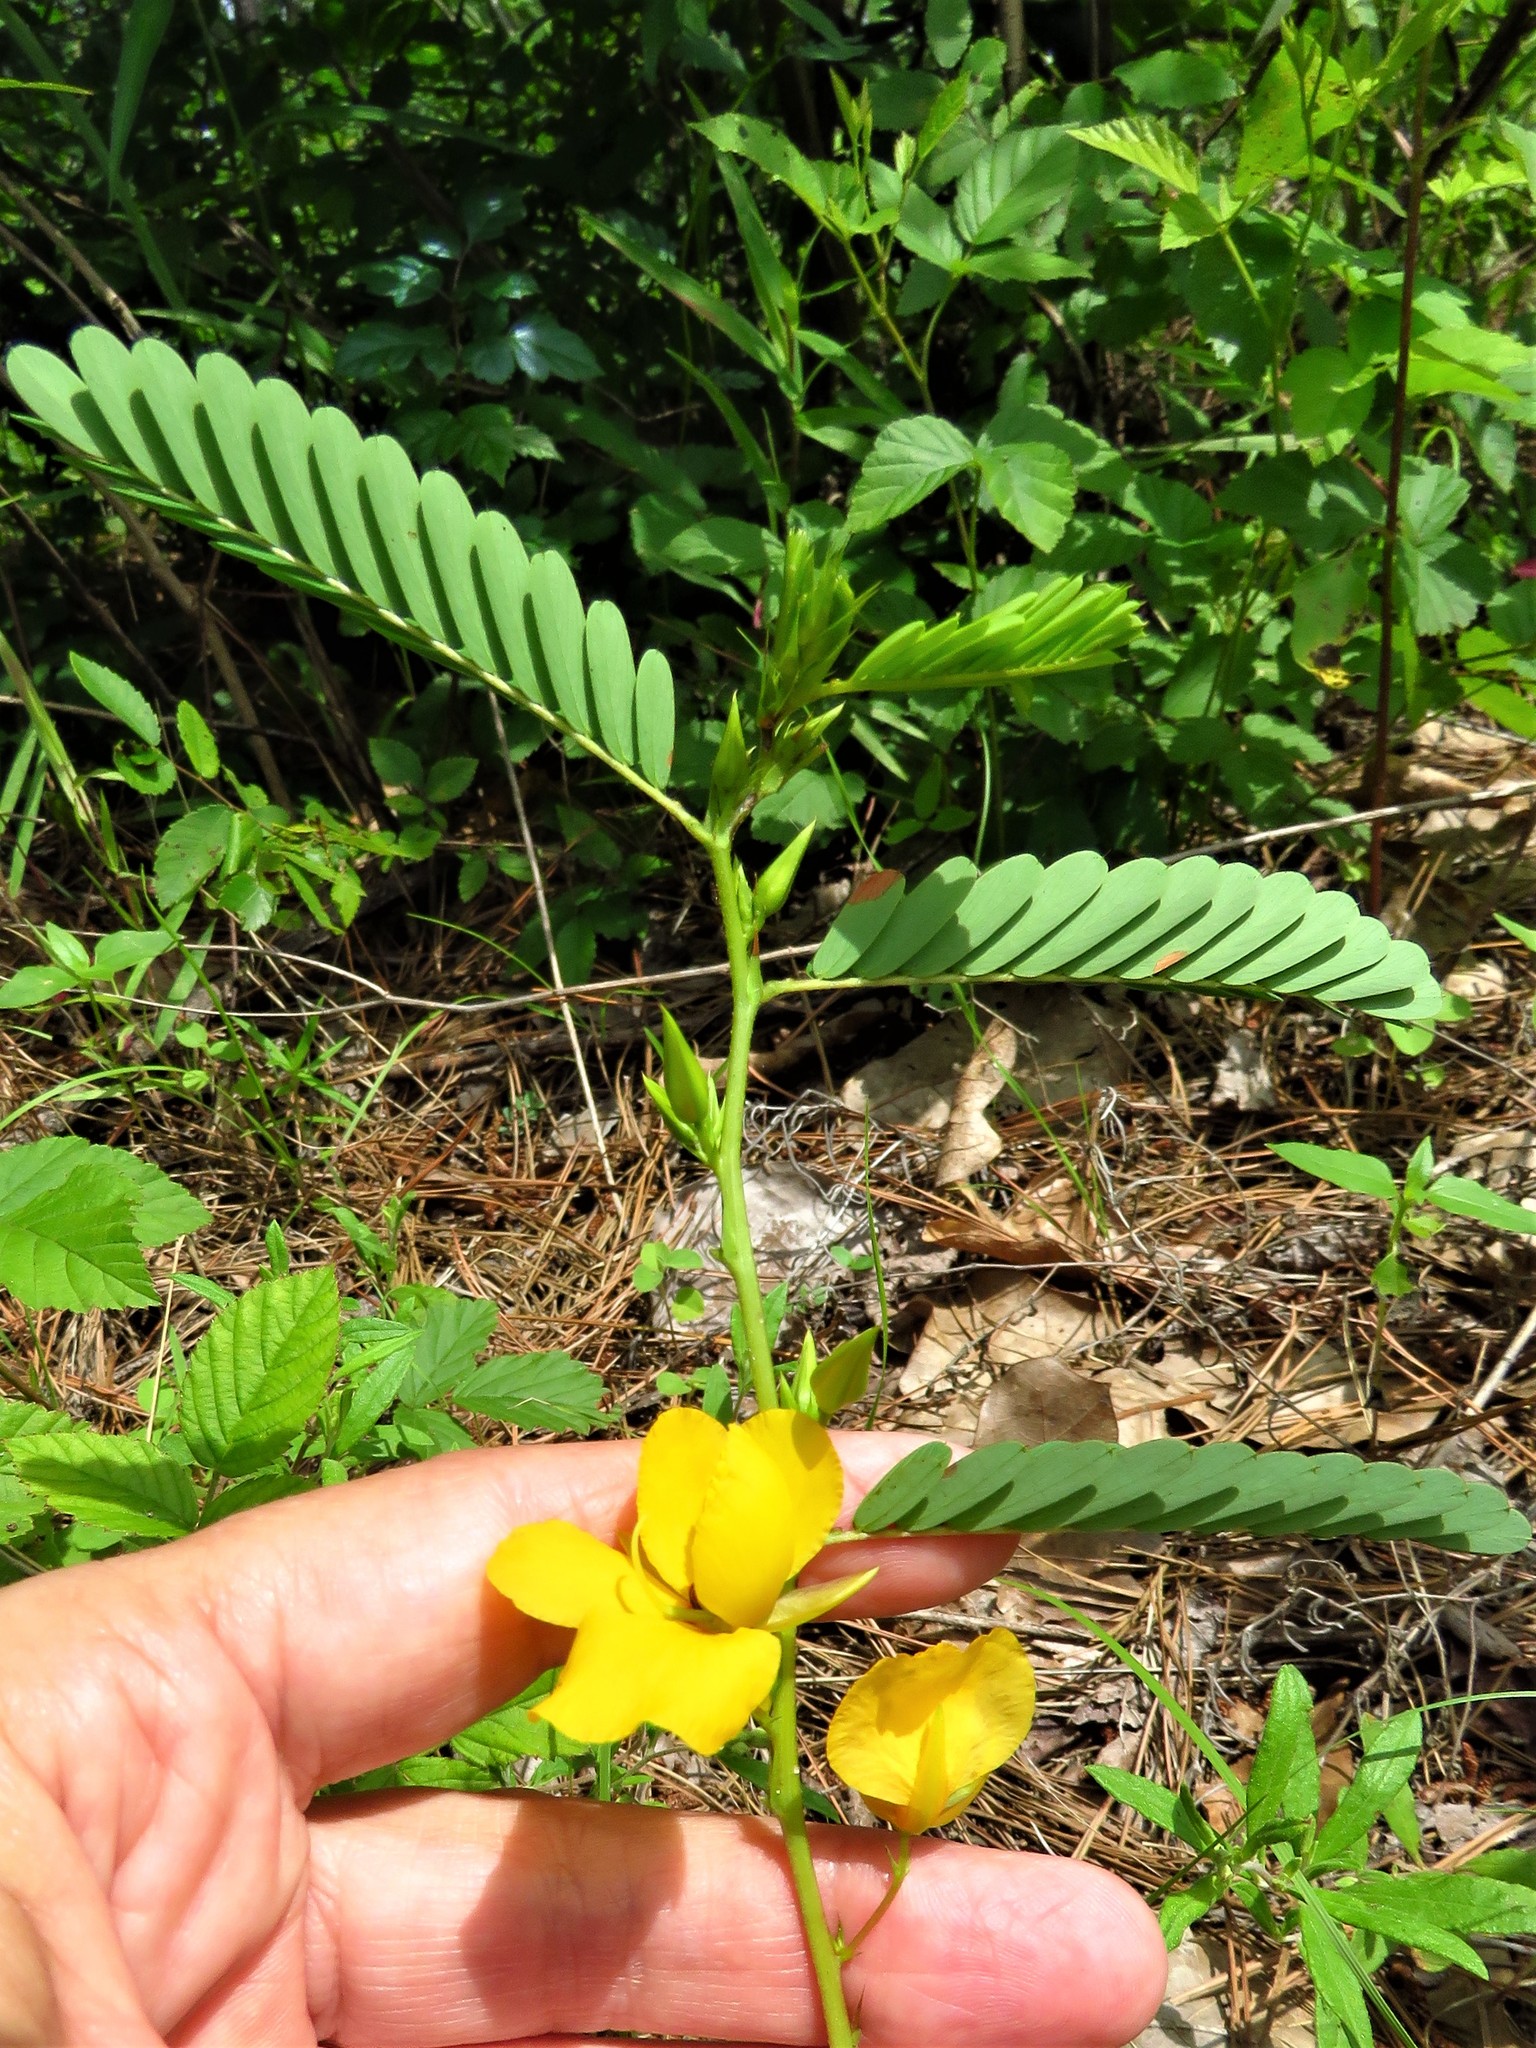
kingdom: Plantae
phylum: Tracheophyta
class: Magnoliopsida
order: Fabales
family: Fabaceae
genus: Chamaecrista
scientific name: Chamaecrista fasciculata
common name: Golden cassia
